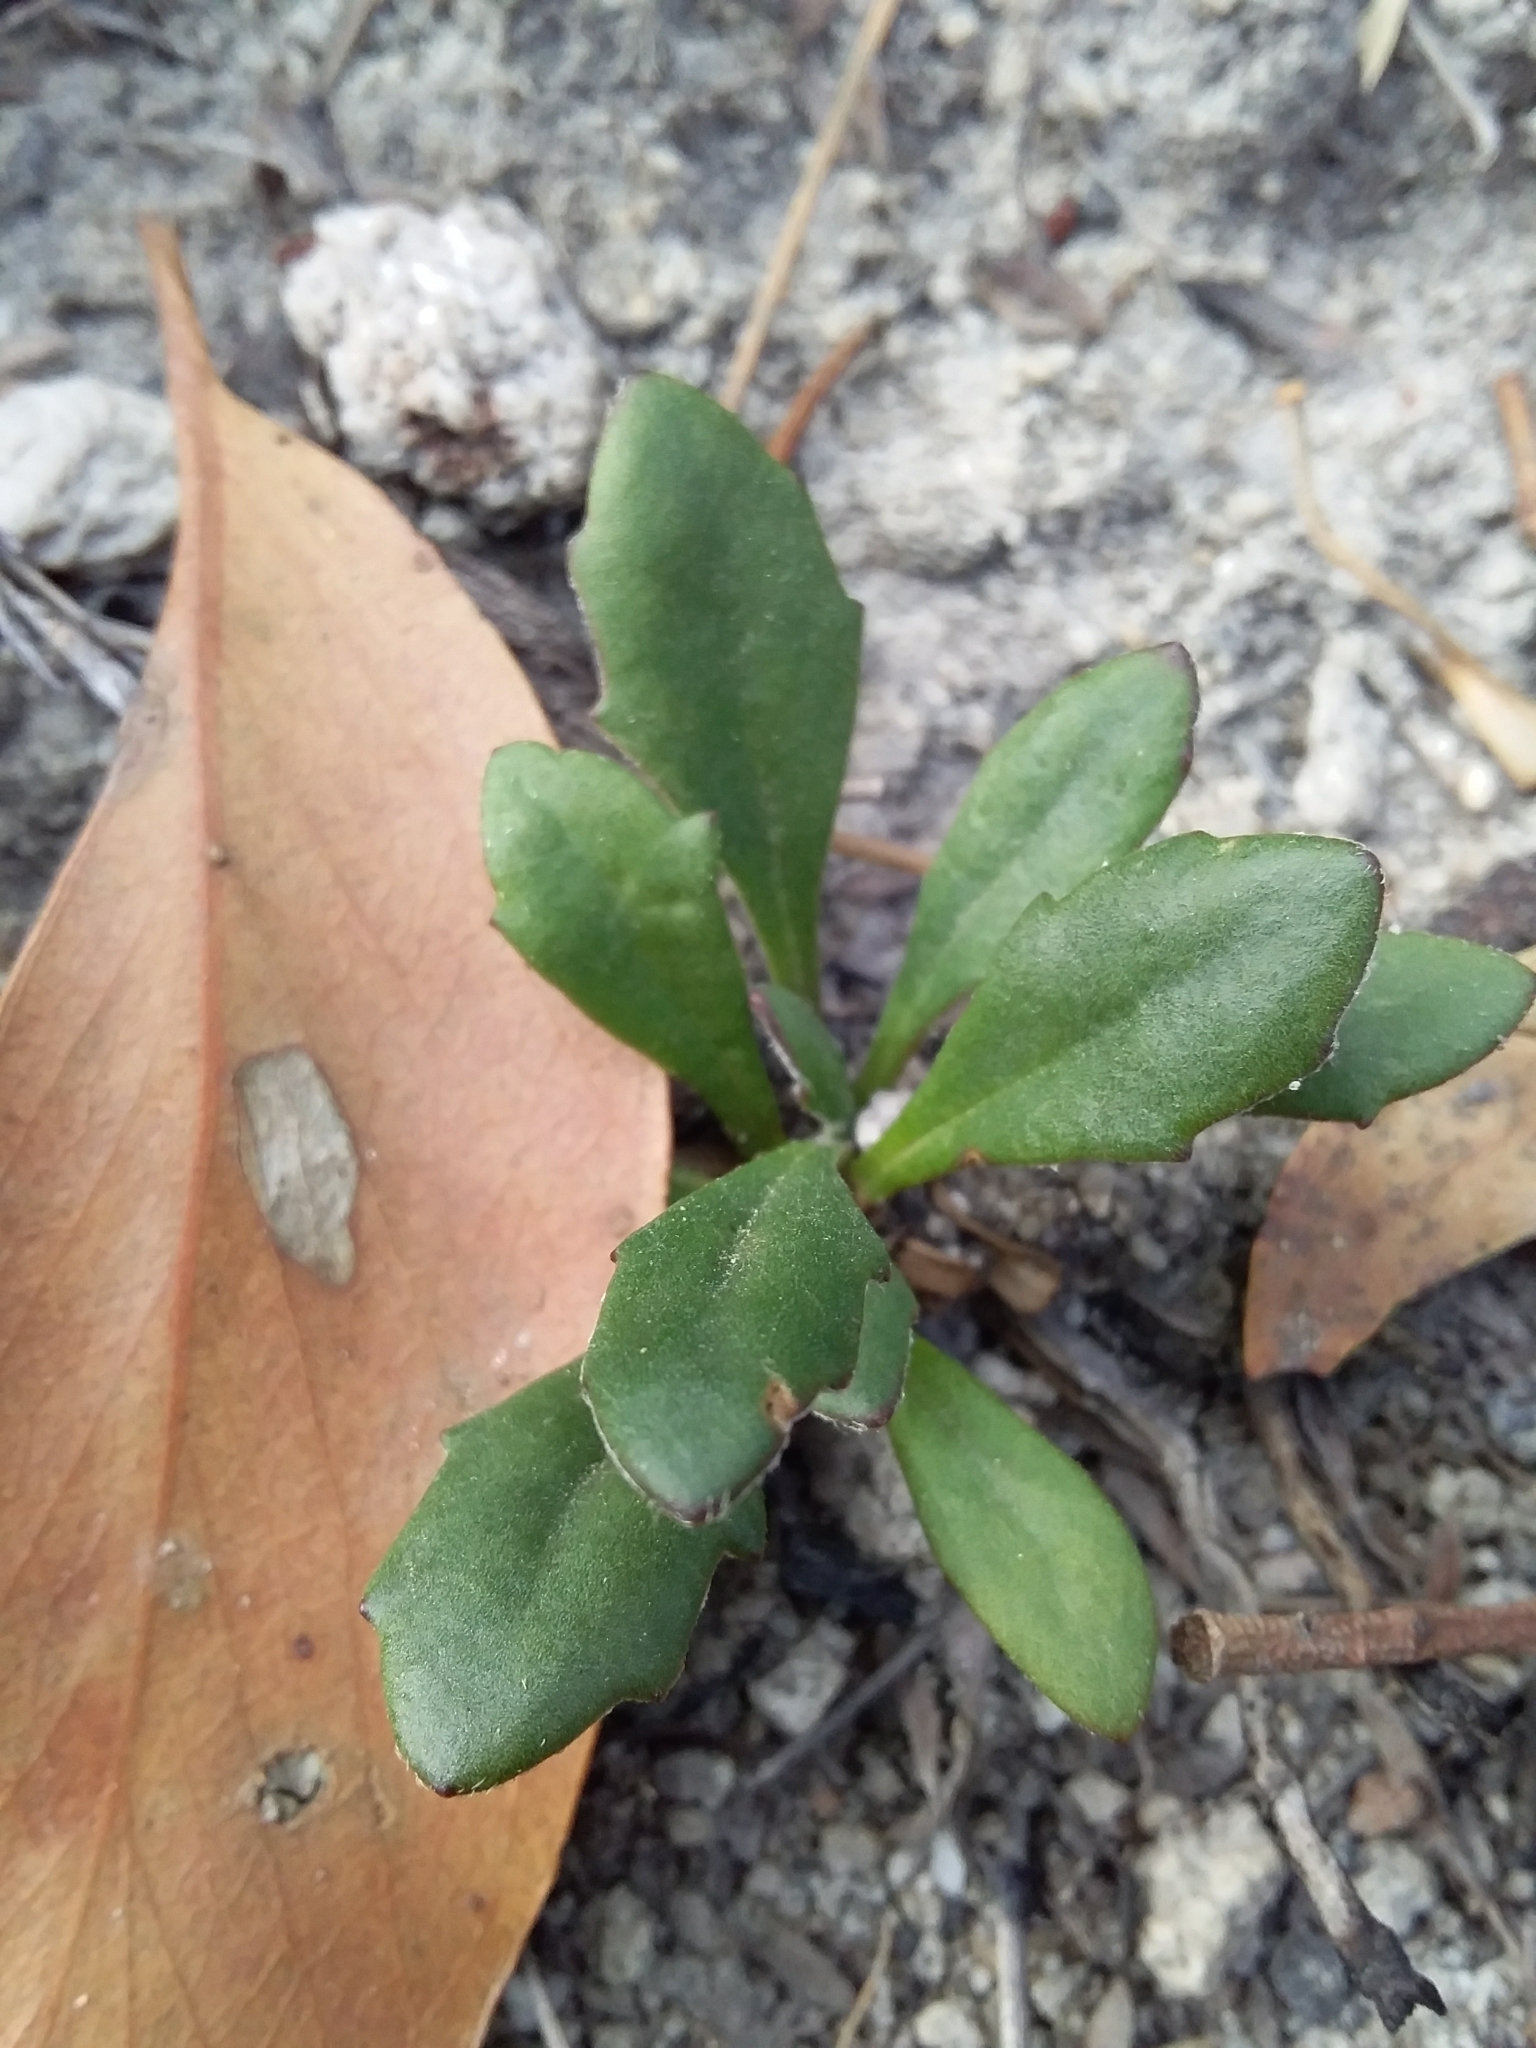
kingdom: Plantae
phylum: Tracheophyta
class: Magnoliopsida
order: Asterales
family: Goodeniaceae
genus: Goodenia
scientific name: Goodenia blackiana
